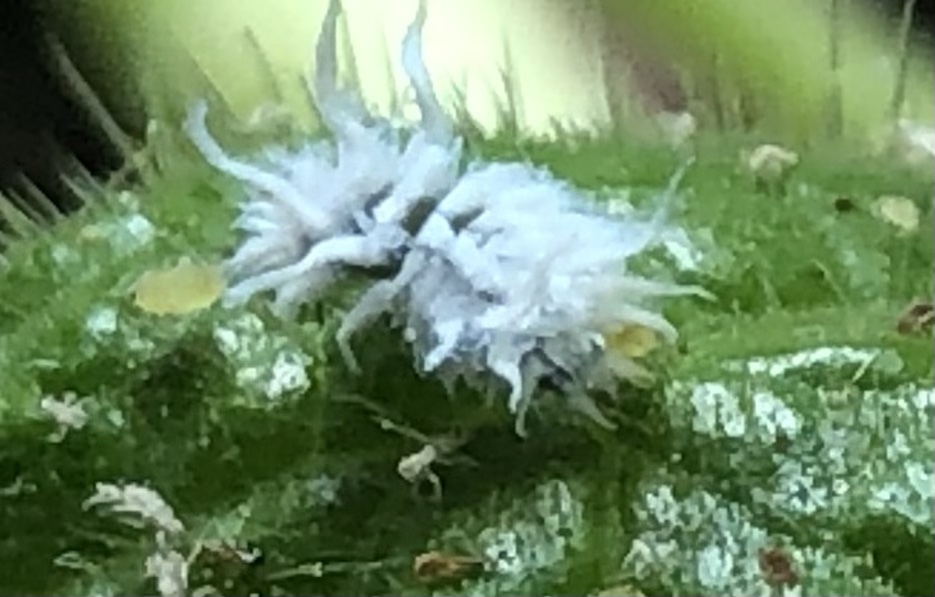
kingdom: Animalia
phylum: Arthropoda
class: Insecta
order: Coleoptera
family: Coccinellidae
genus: Cryptolaemus
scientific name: Cryptolaemus montrouzieri
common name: Mealybug destroyer
